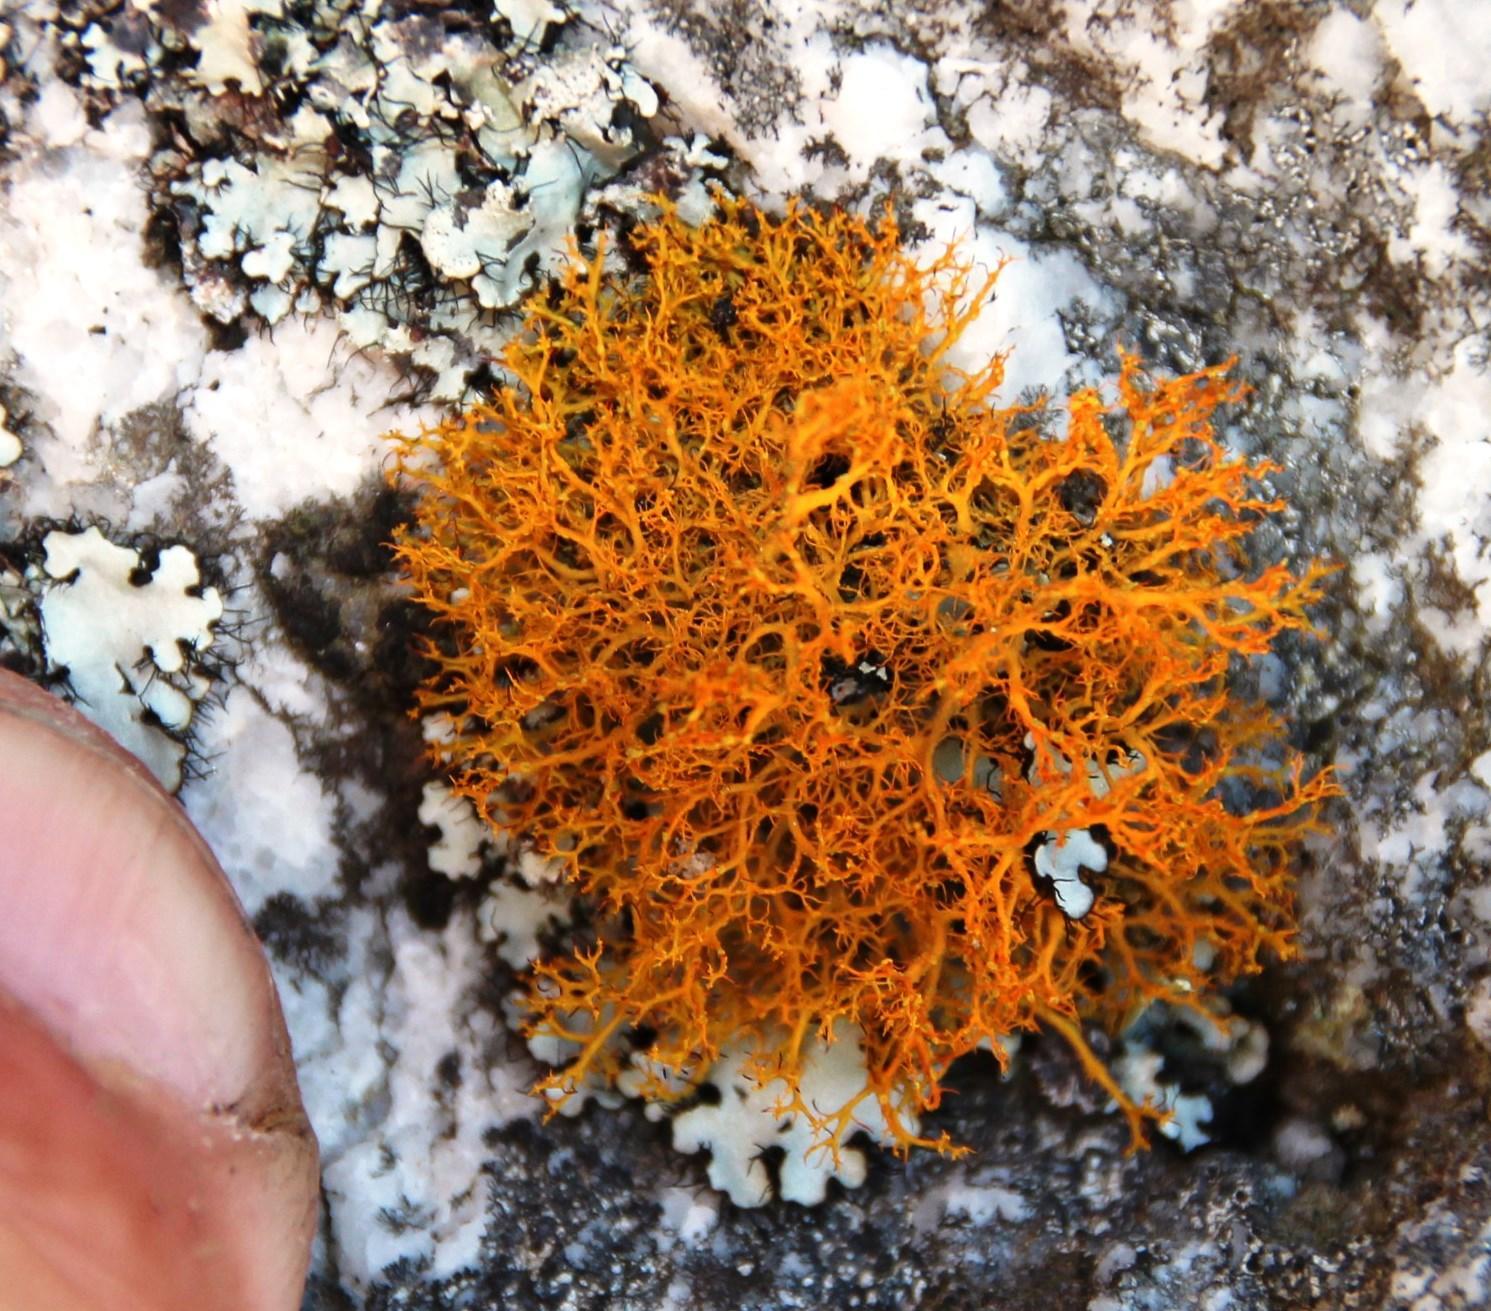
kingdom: Fungi
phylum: Ascomycota
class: Lecanoromycetes
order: Teloschistales
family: Teloschistaceae
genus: Teloschistes
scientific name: Teloschistes flavicans
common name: Golden hair-lichen
